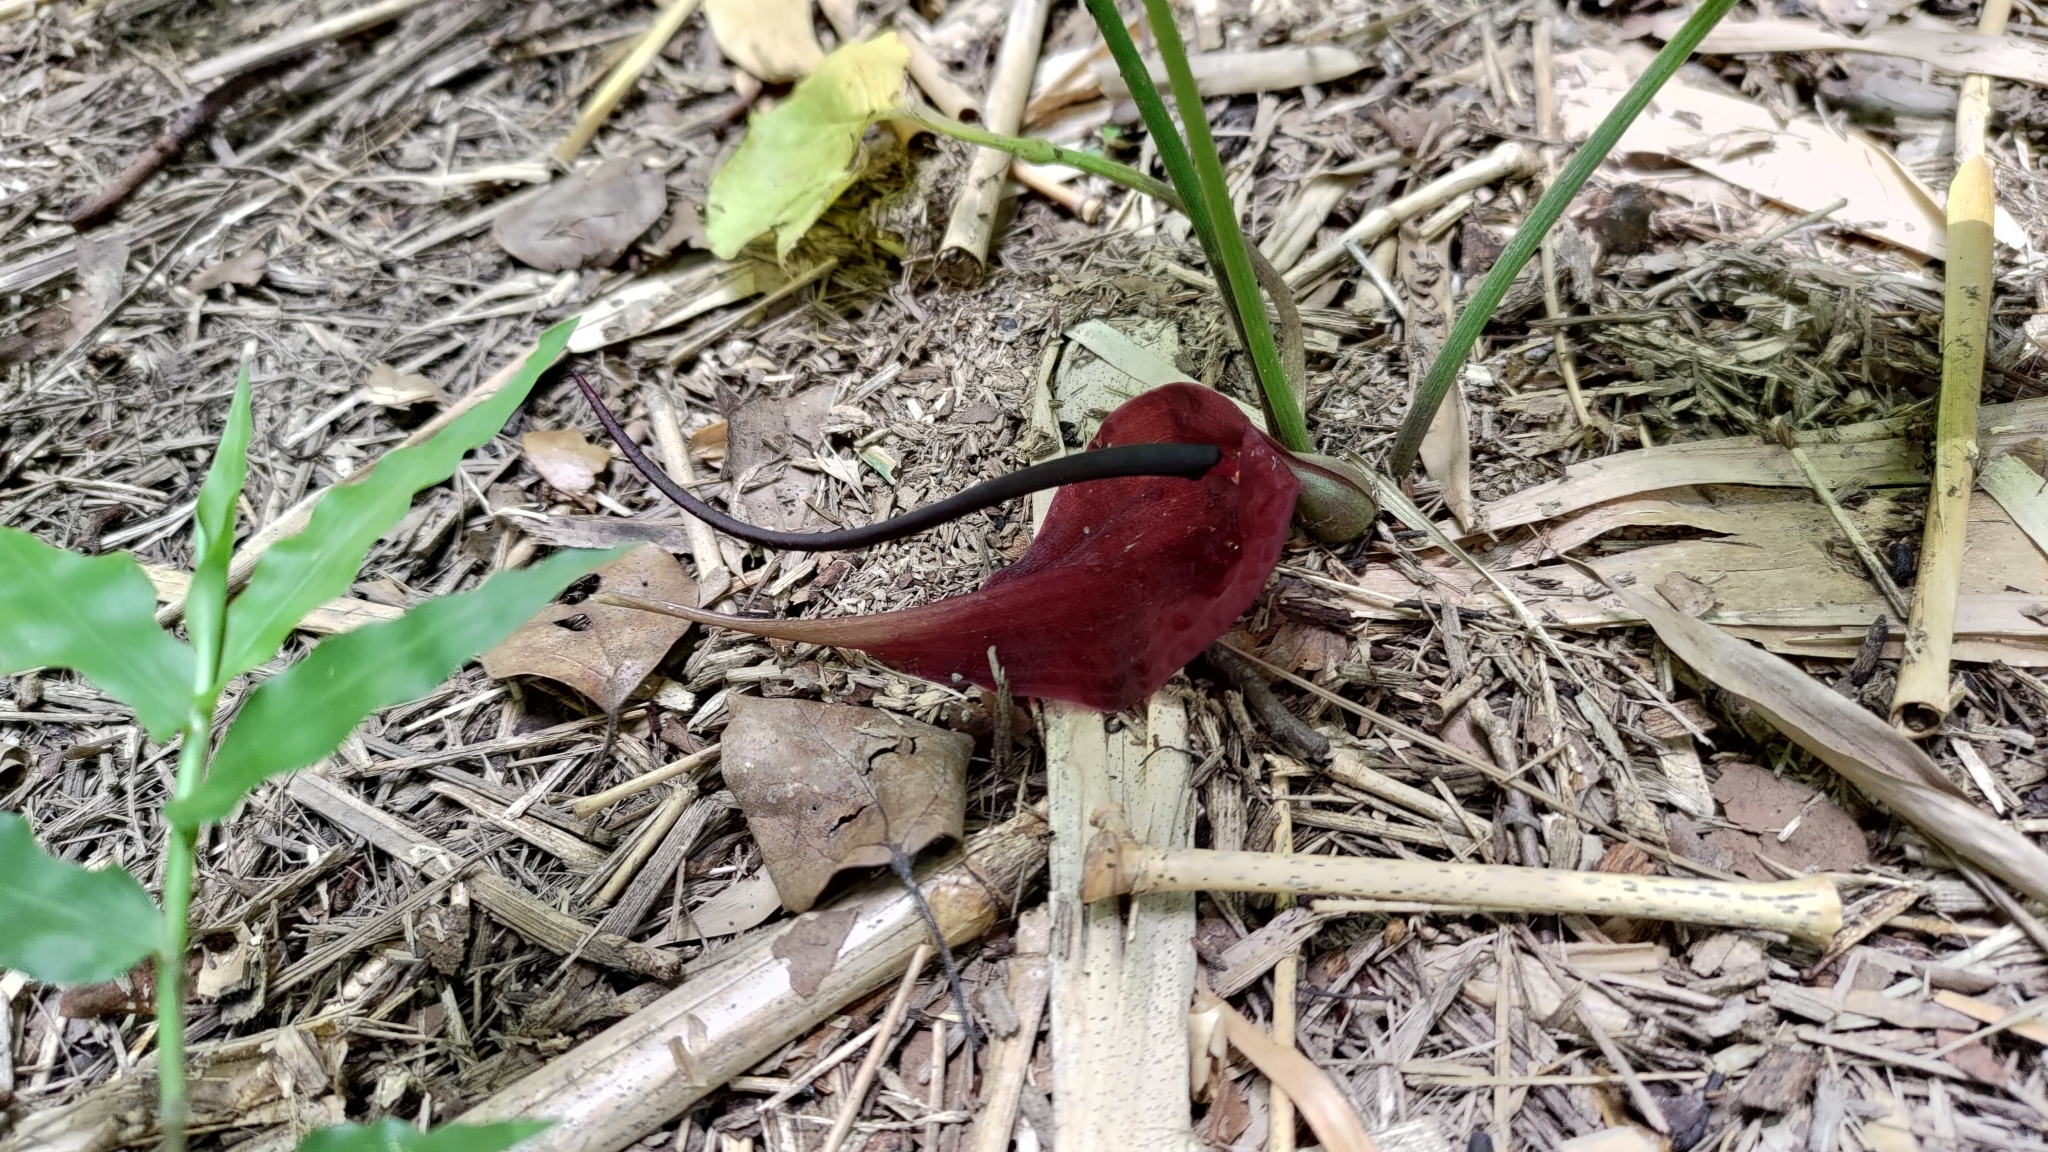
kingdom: Plantae
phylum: Tracheophyta
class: Liliopsida
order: Alismatales
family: Araceae
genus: Typhonium
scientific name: Typhonium blumei
